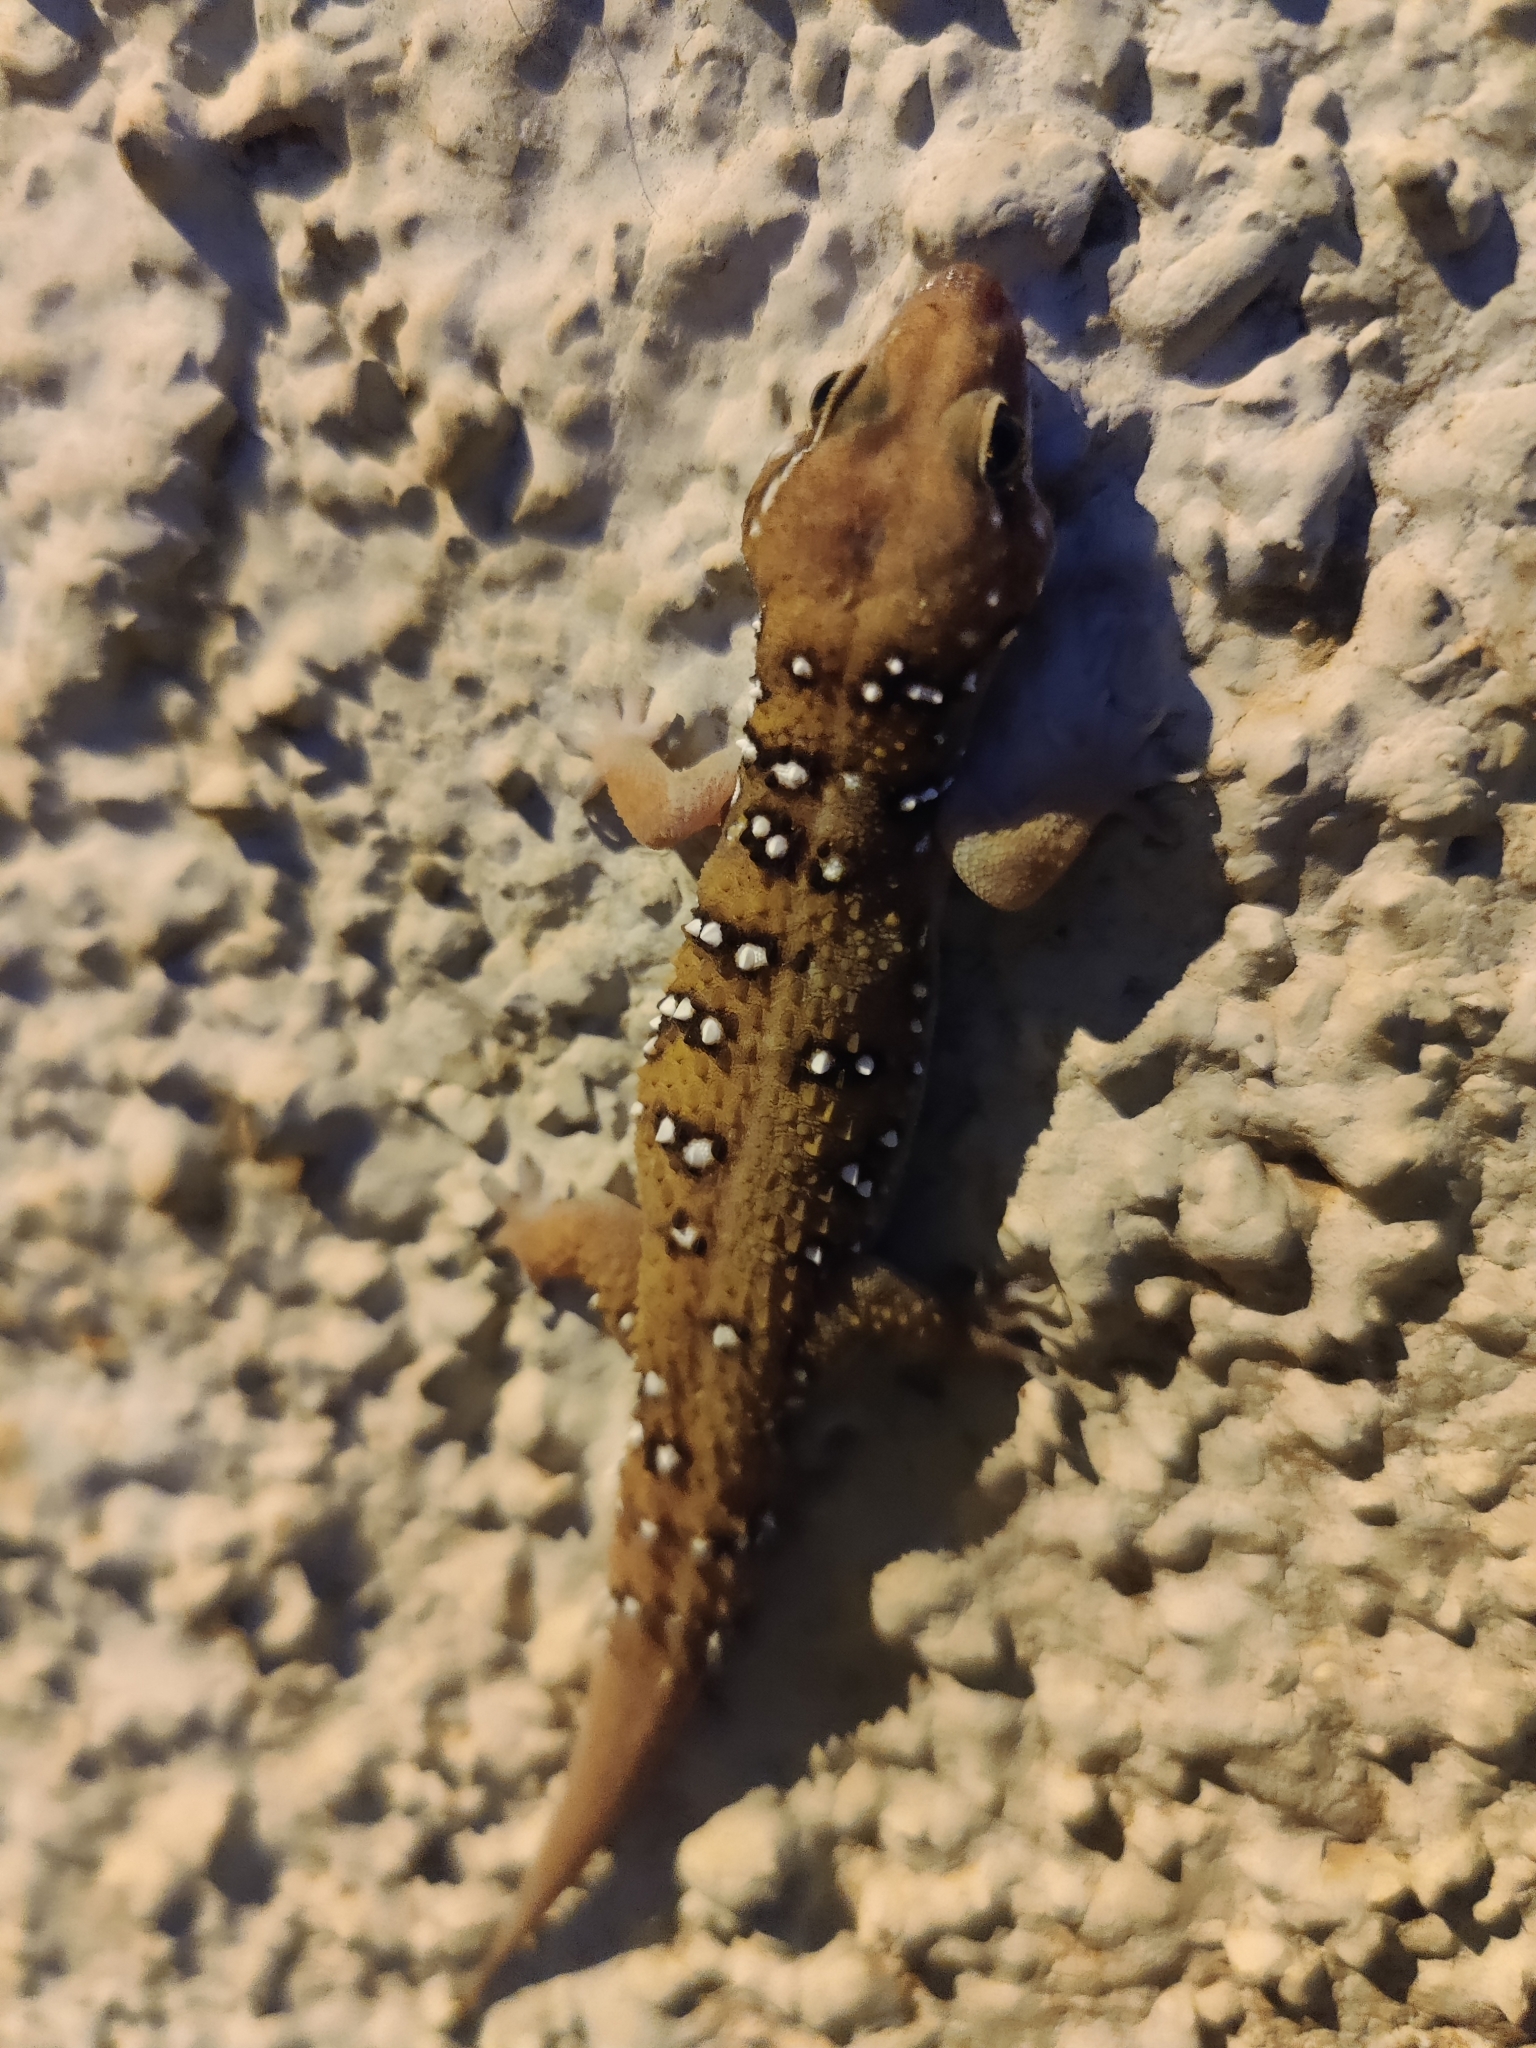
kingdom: Animalia
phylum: Chordata
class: Squamata
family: Gekkonidae
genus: Hemidactylus
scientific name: Hemidactylus whitakeri
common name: Whitaker’s termite hill gecko
